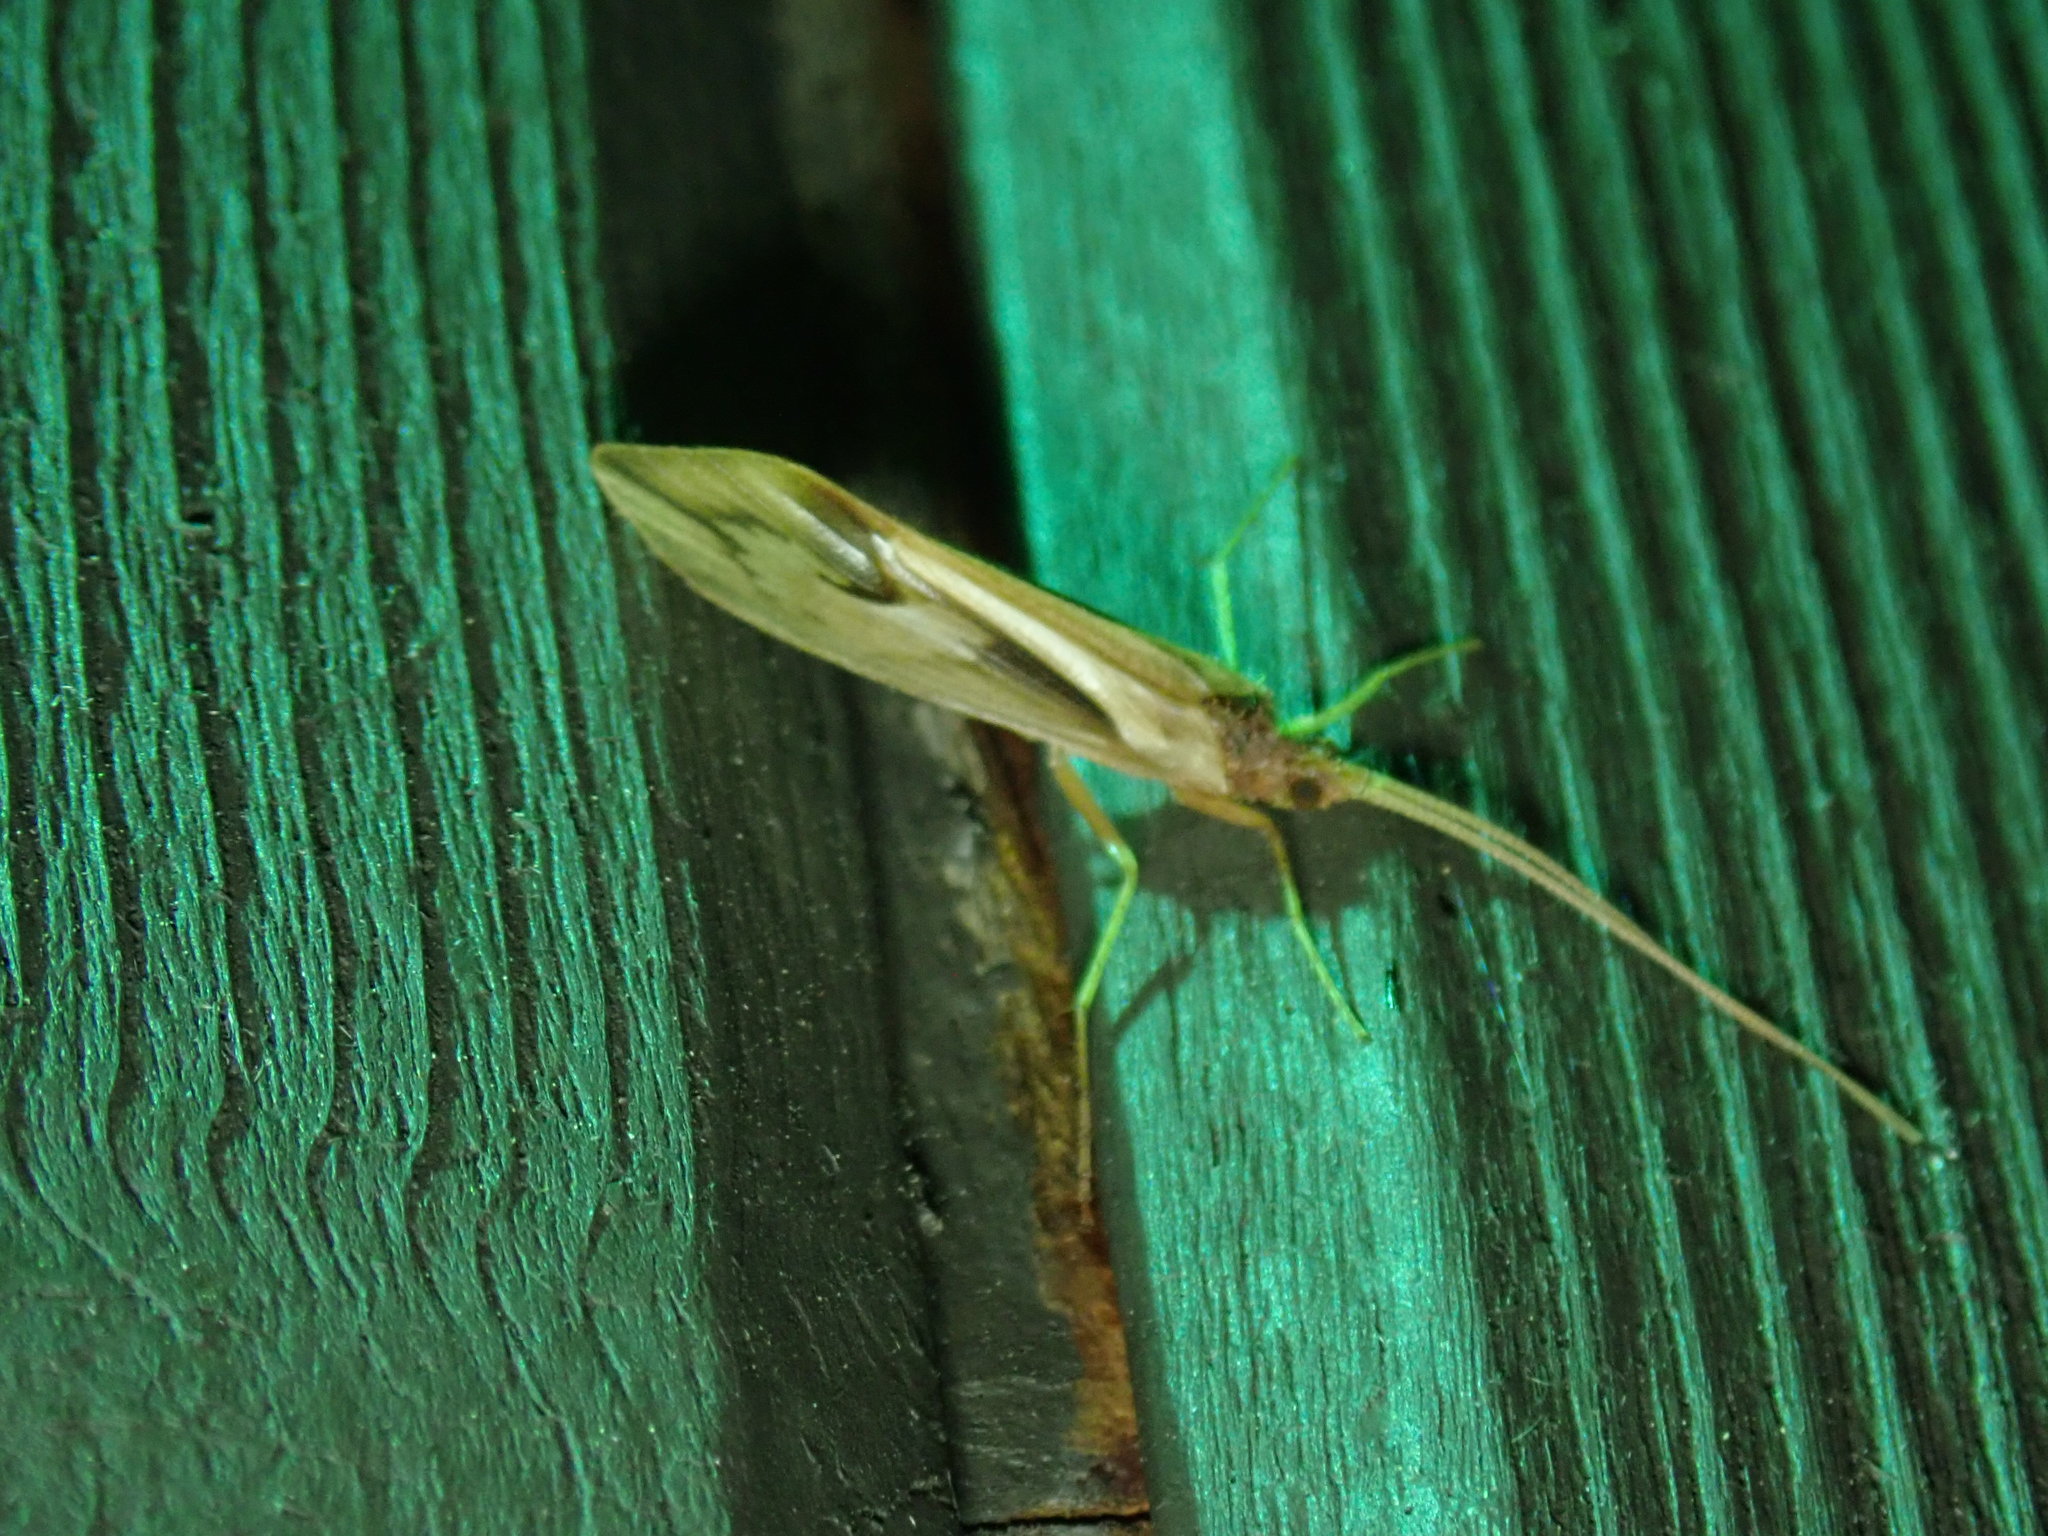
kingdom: Animalia
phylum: Arthropoda
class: Insecta
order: Trichoptera
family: Limnephilidae
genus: Platycentropus
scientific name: Platycentropus radiatus
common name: Chocolate-and-cream sedge
